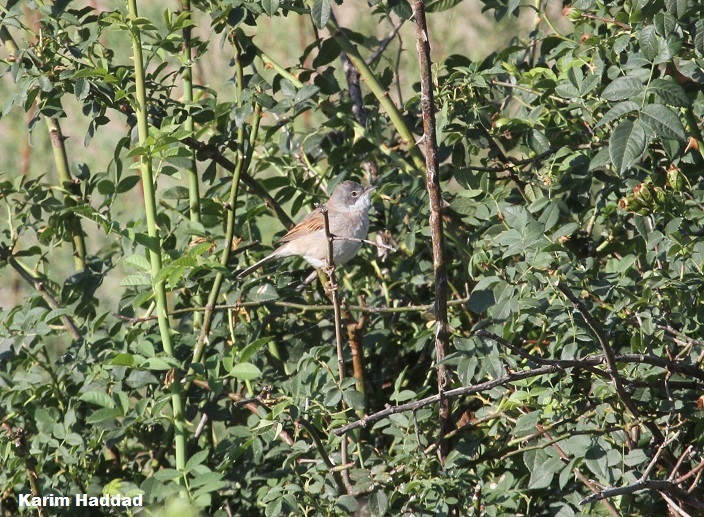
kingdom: Animalia
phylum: Chordata
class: Aves
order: Passeriformes
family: Sylviidae
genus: Sylvia
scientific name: Sylvia communis
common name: Common whitethroat
